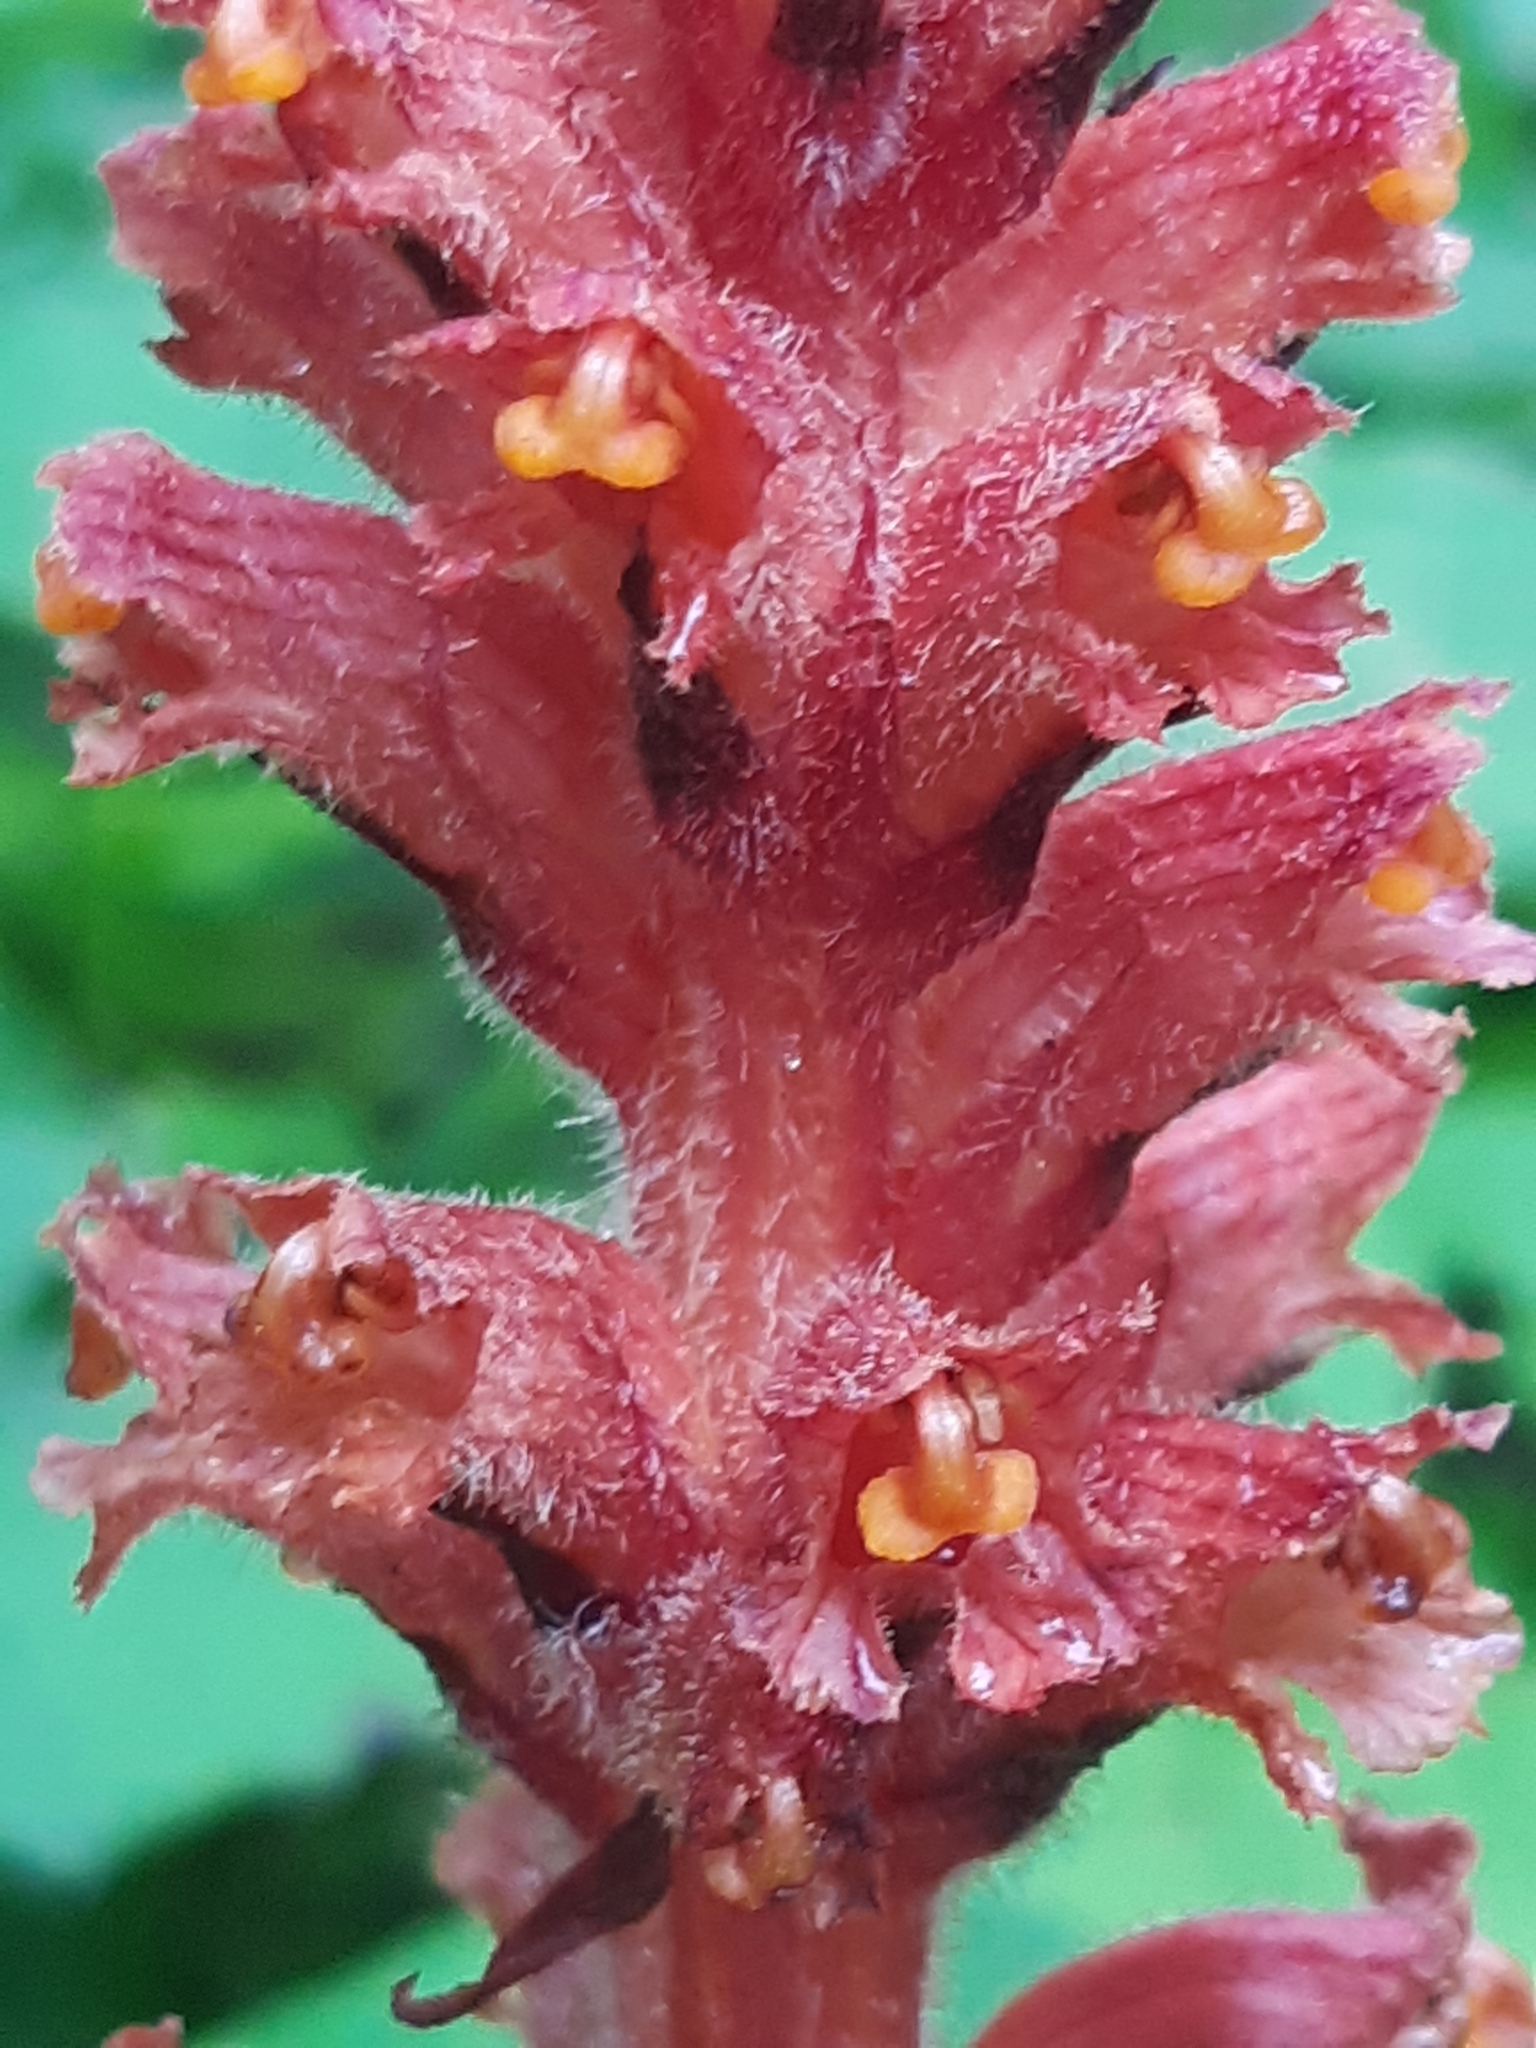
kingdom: Plantae
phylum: Tracheophyta
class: Magnoliopsida
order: Lamiales
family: Orobanchaceae
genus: Orobanche
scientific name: Orobanche flava
